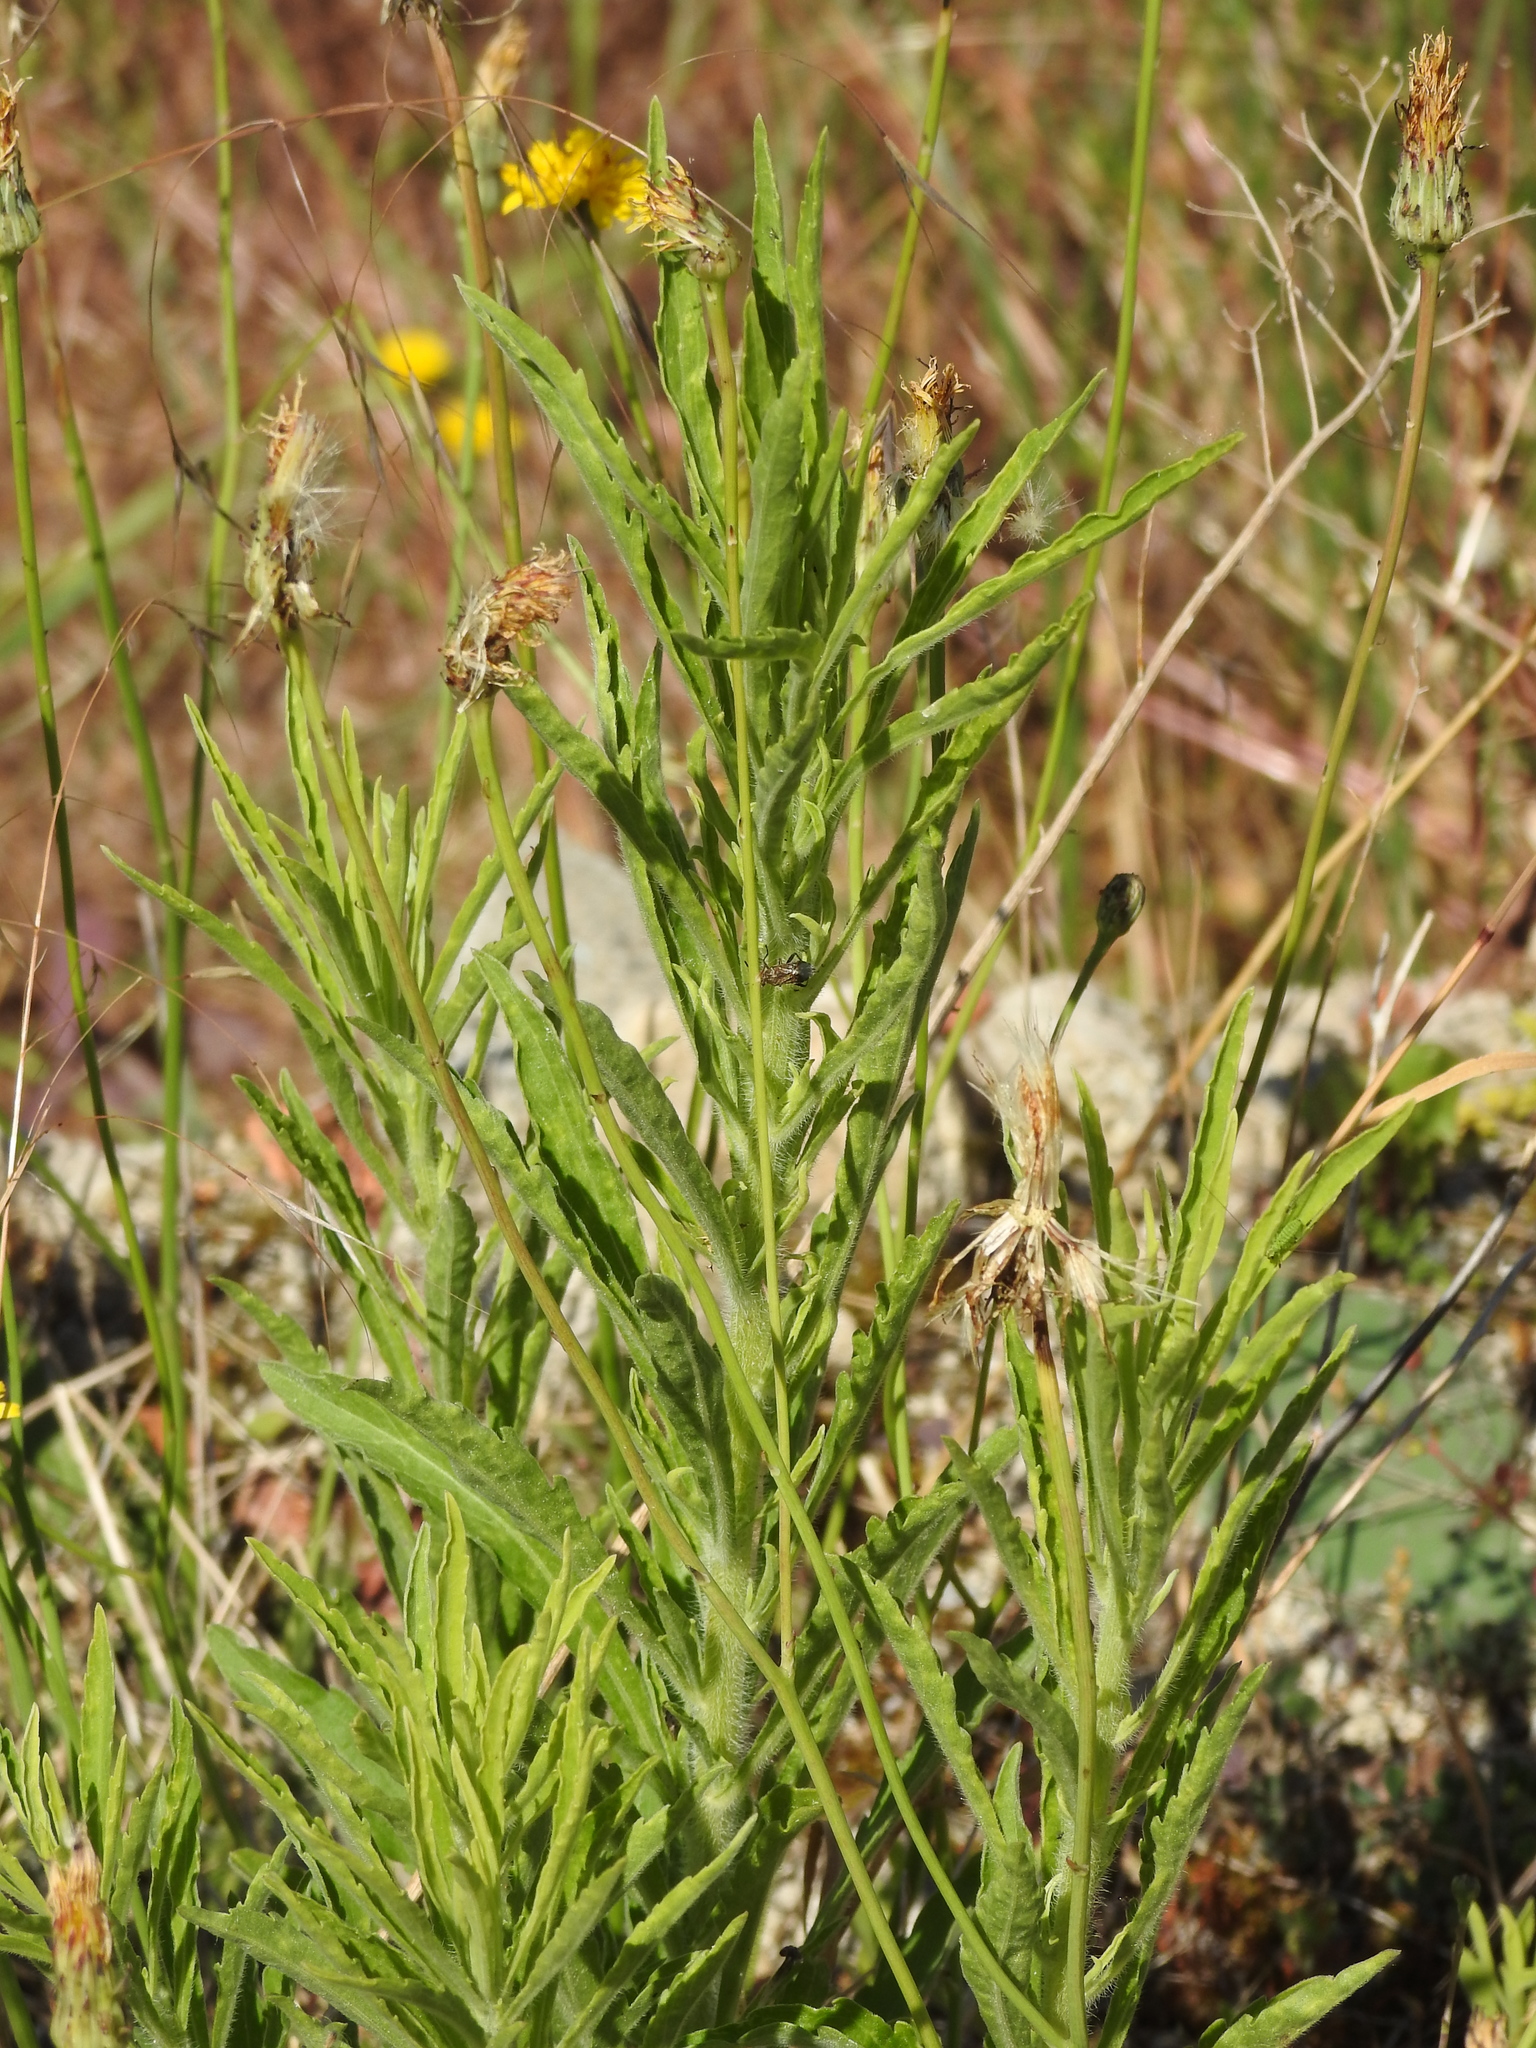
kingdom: Plantae
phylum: Tracheophyta
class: Magnoliopsida
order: Asterales
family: Asteraceae
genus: Hypochaeris
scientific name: Hypochaeris radicata
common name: Flatweed
